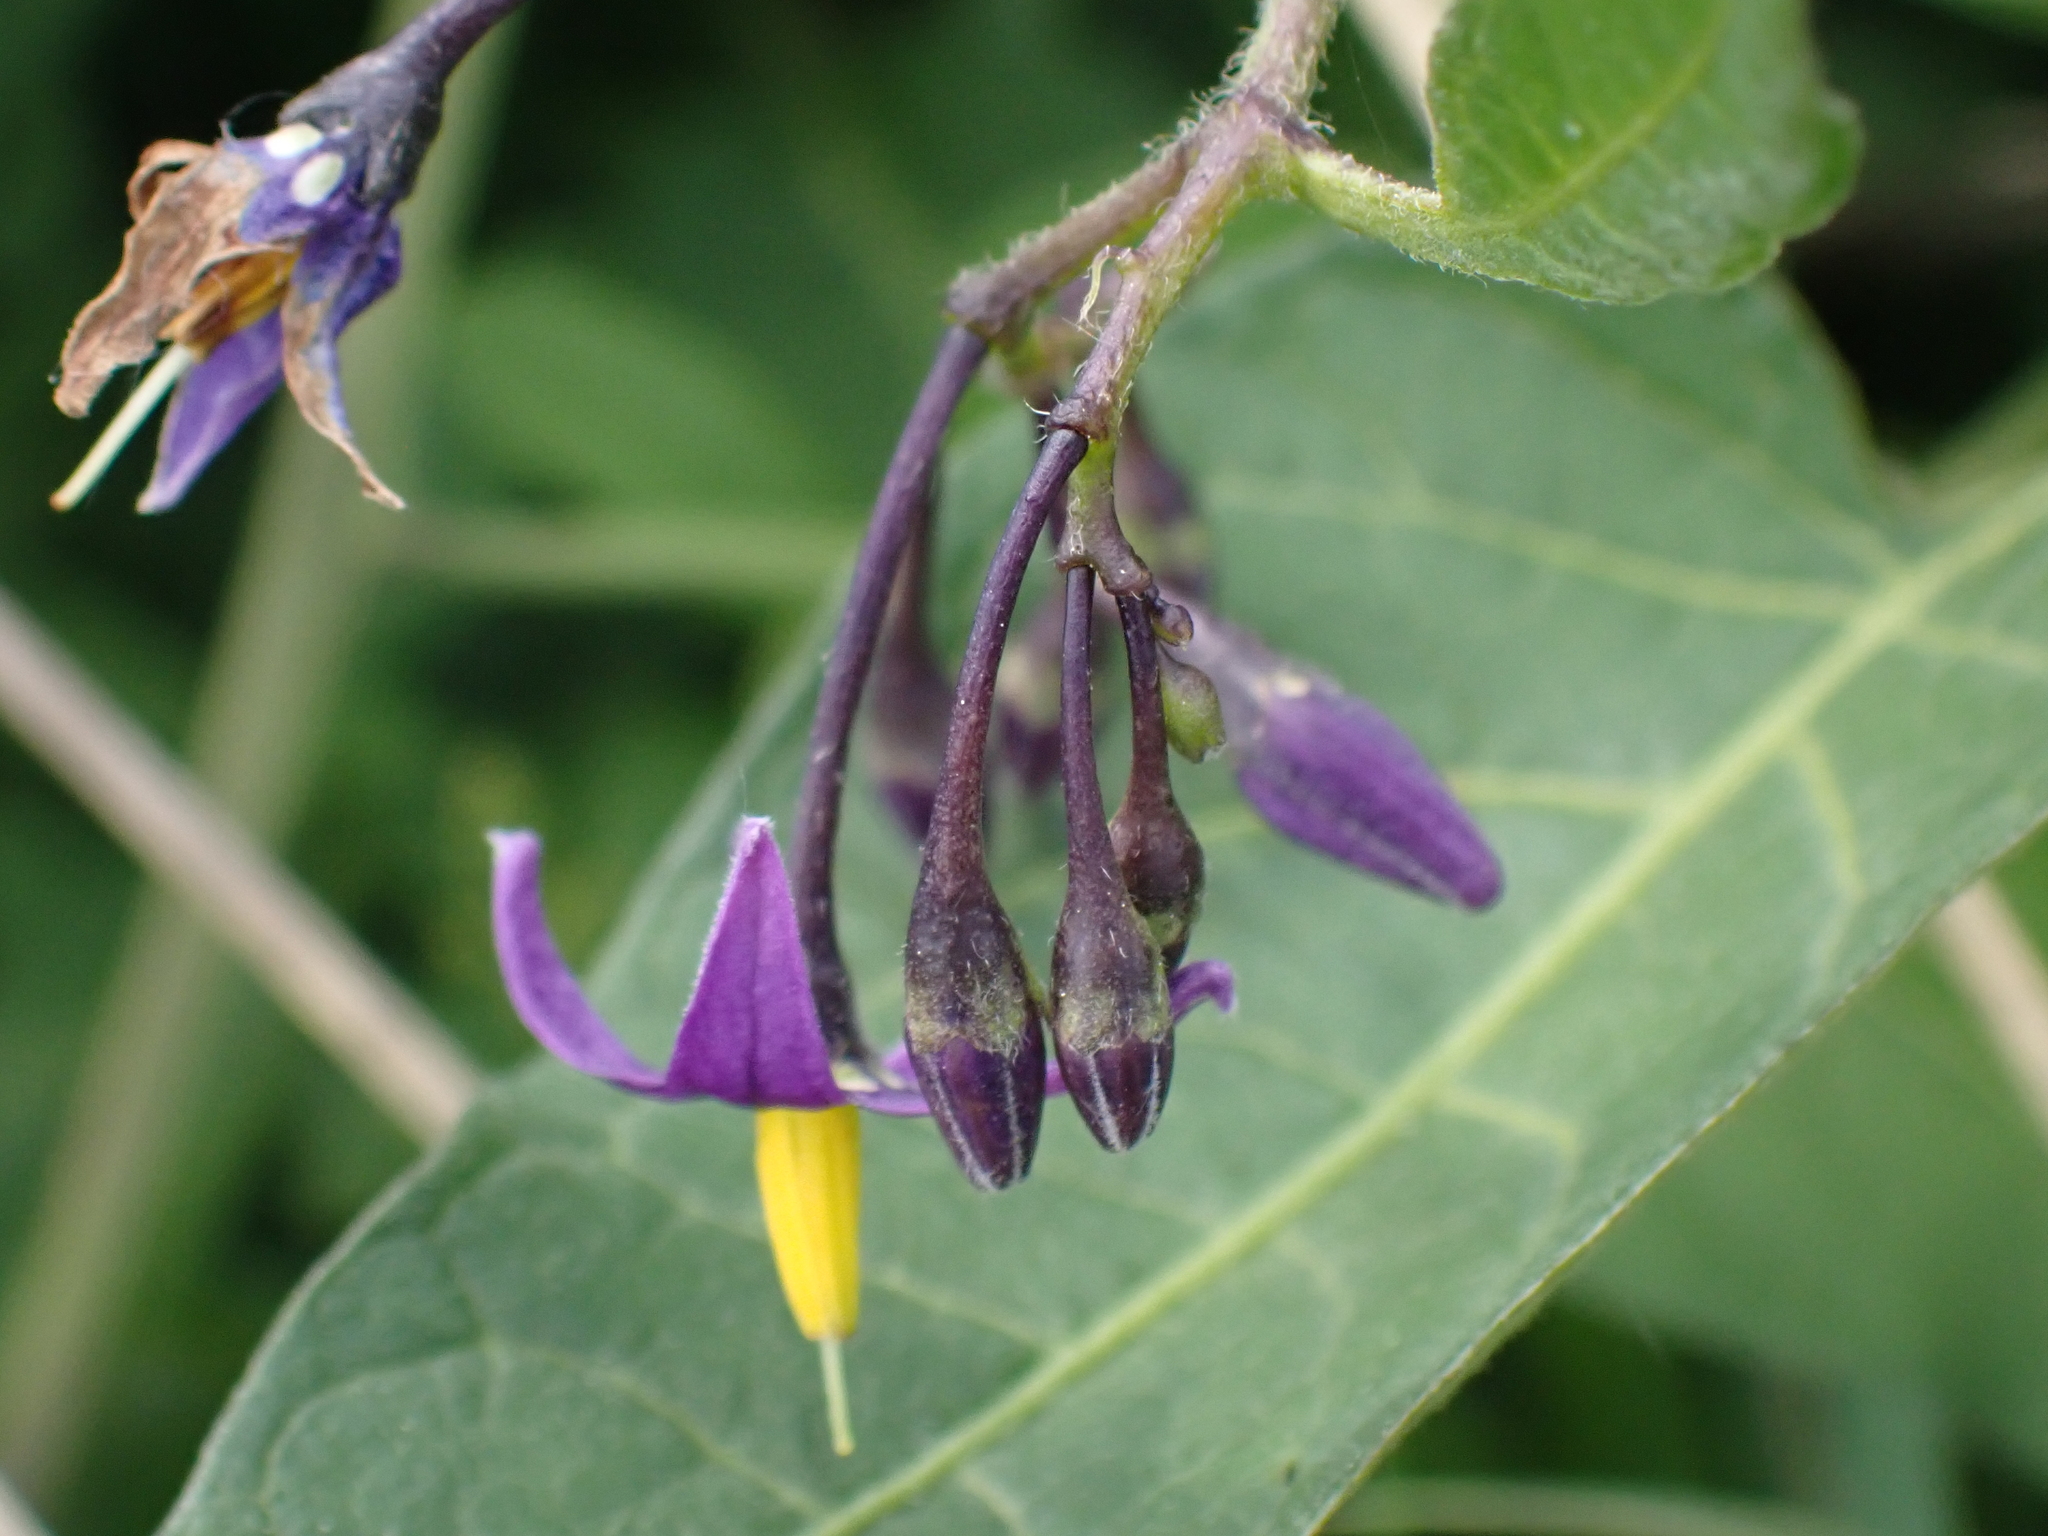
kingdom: Plantae
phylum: Tracheophyta
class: Magnoliopsida
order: Solanales
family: Solanaceae
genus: Solanum
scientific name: Solanum dulcamara
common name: Climbing nightshade
